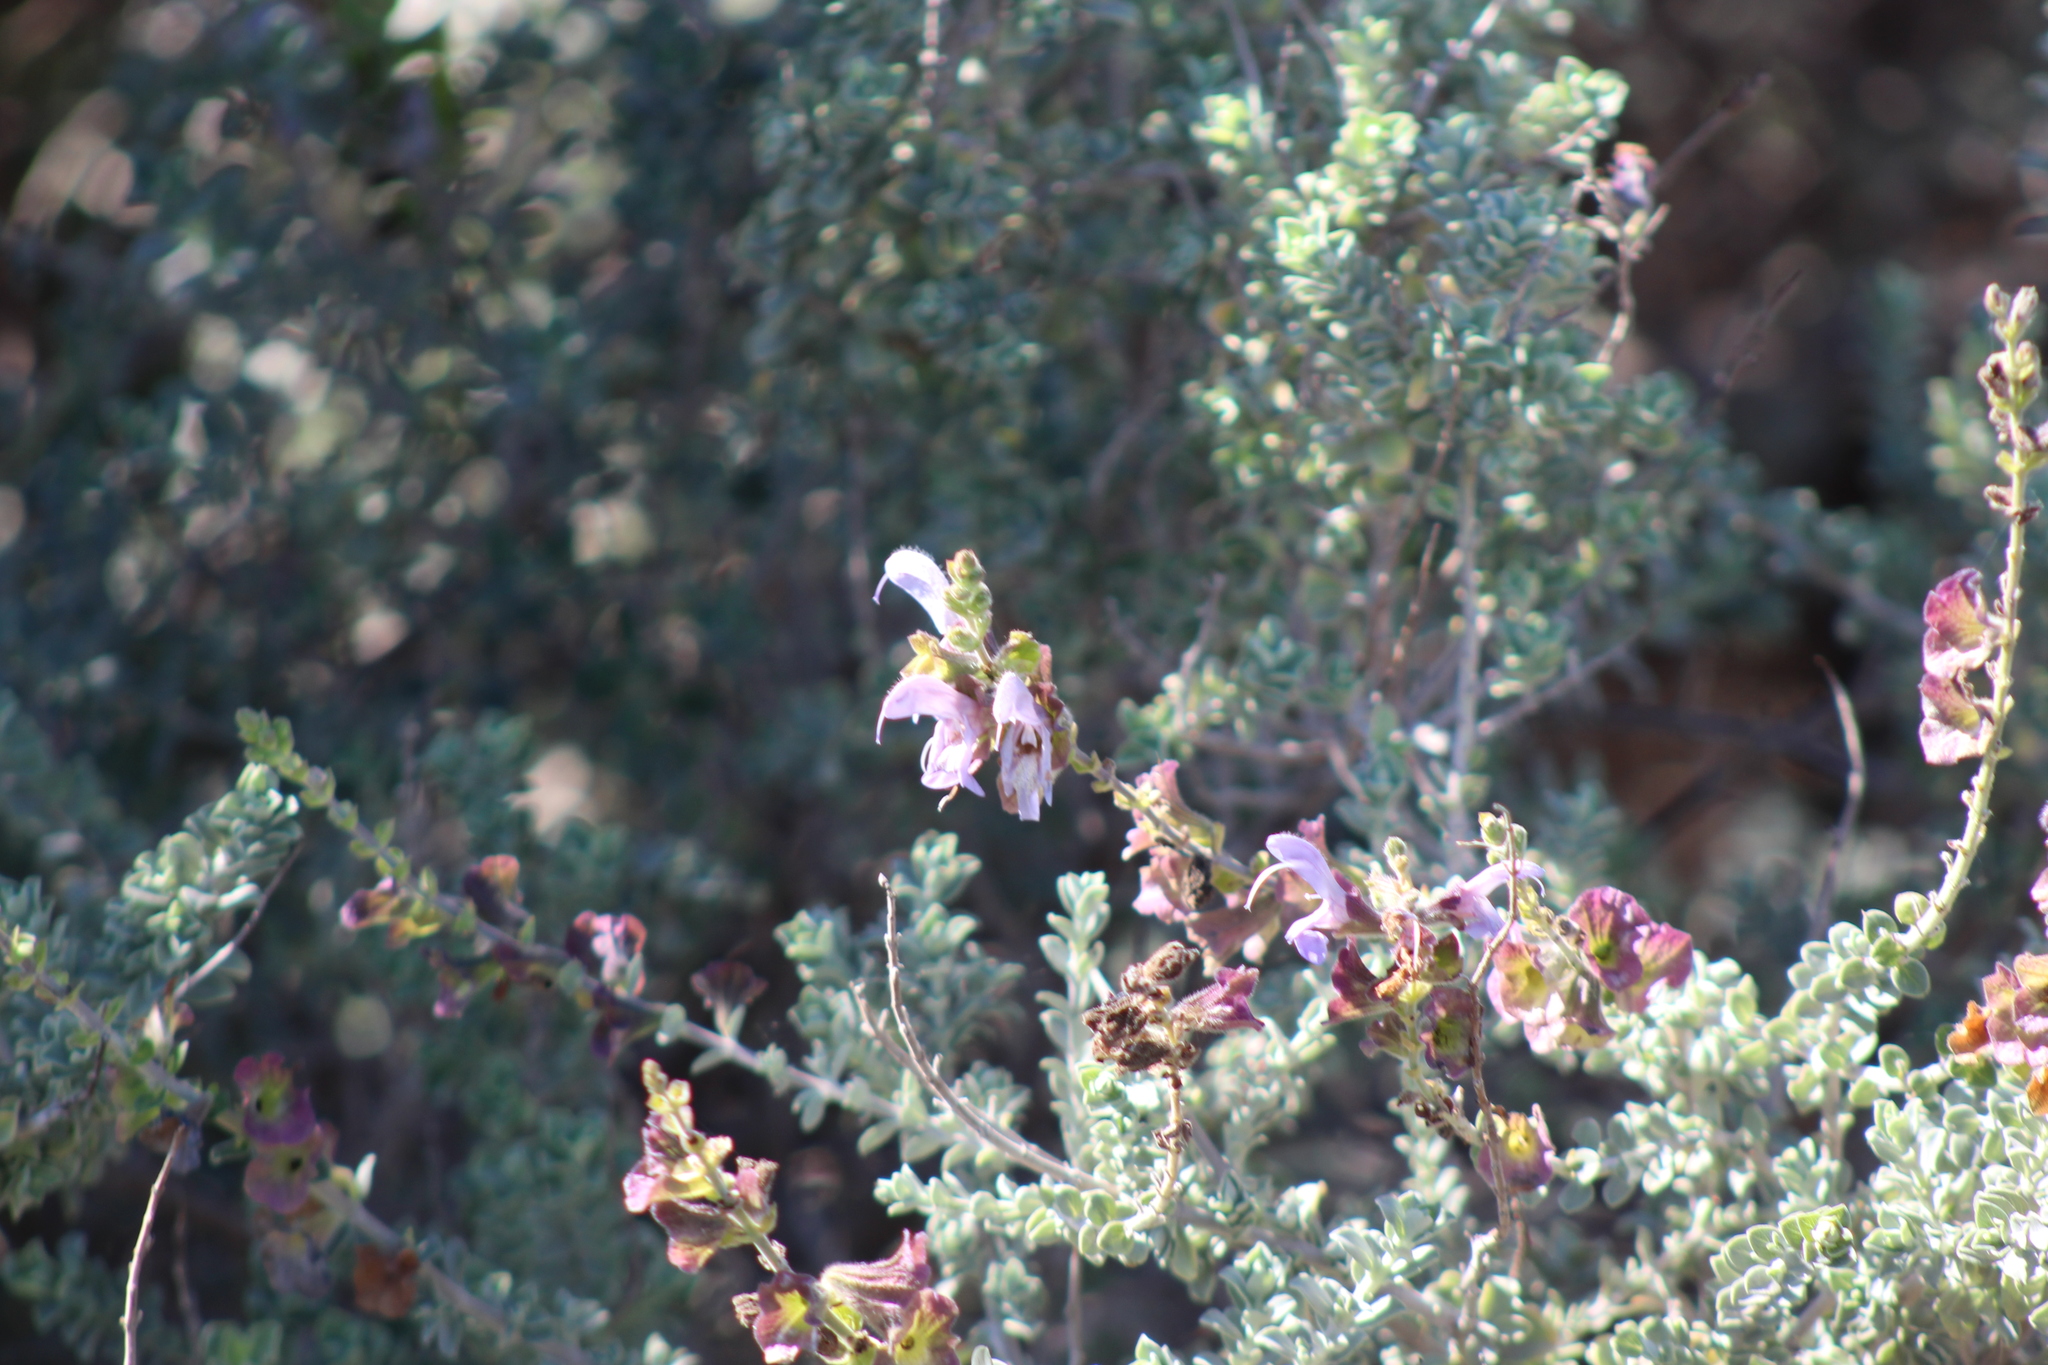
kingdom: Plantae
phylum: Tracheophyta
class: Magnoliopsida
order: Lamiales
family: Lamiaceae
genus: Salvia
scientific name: Salvia africana
